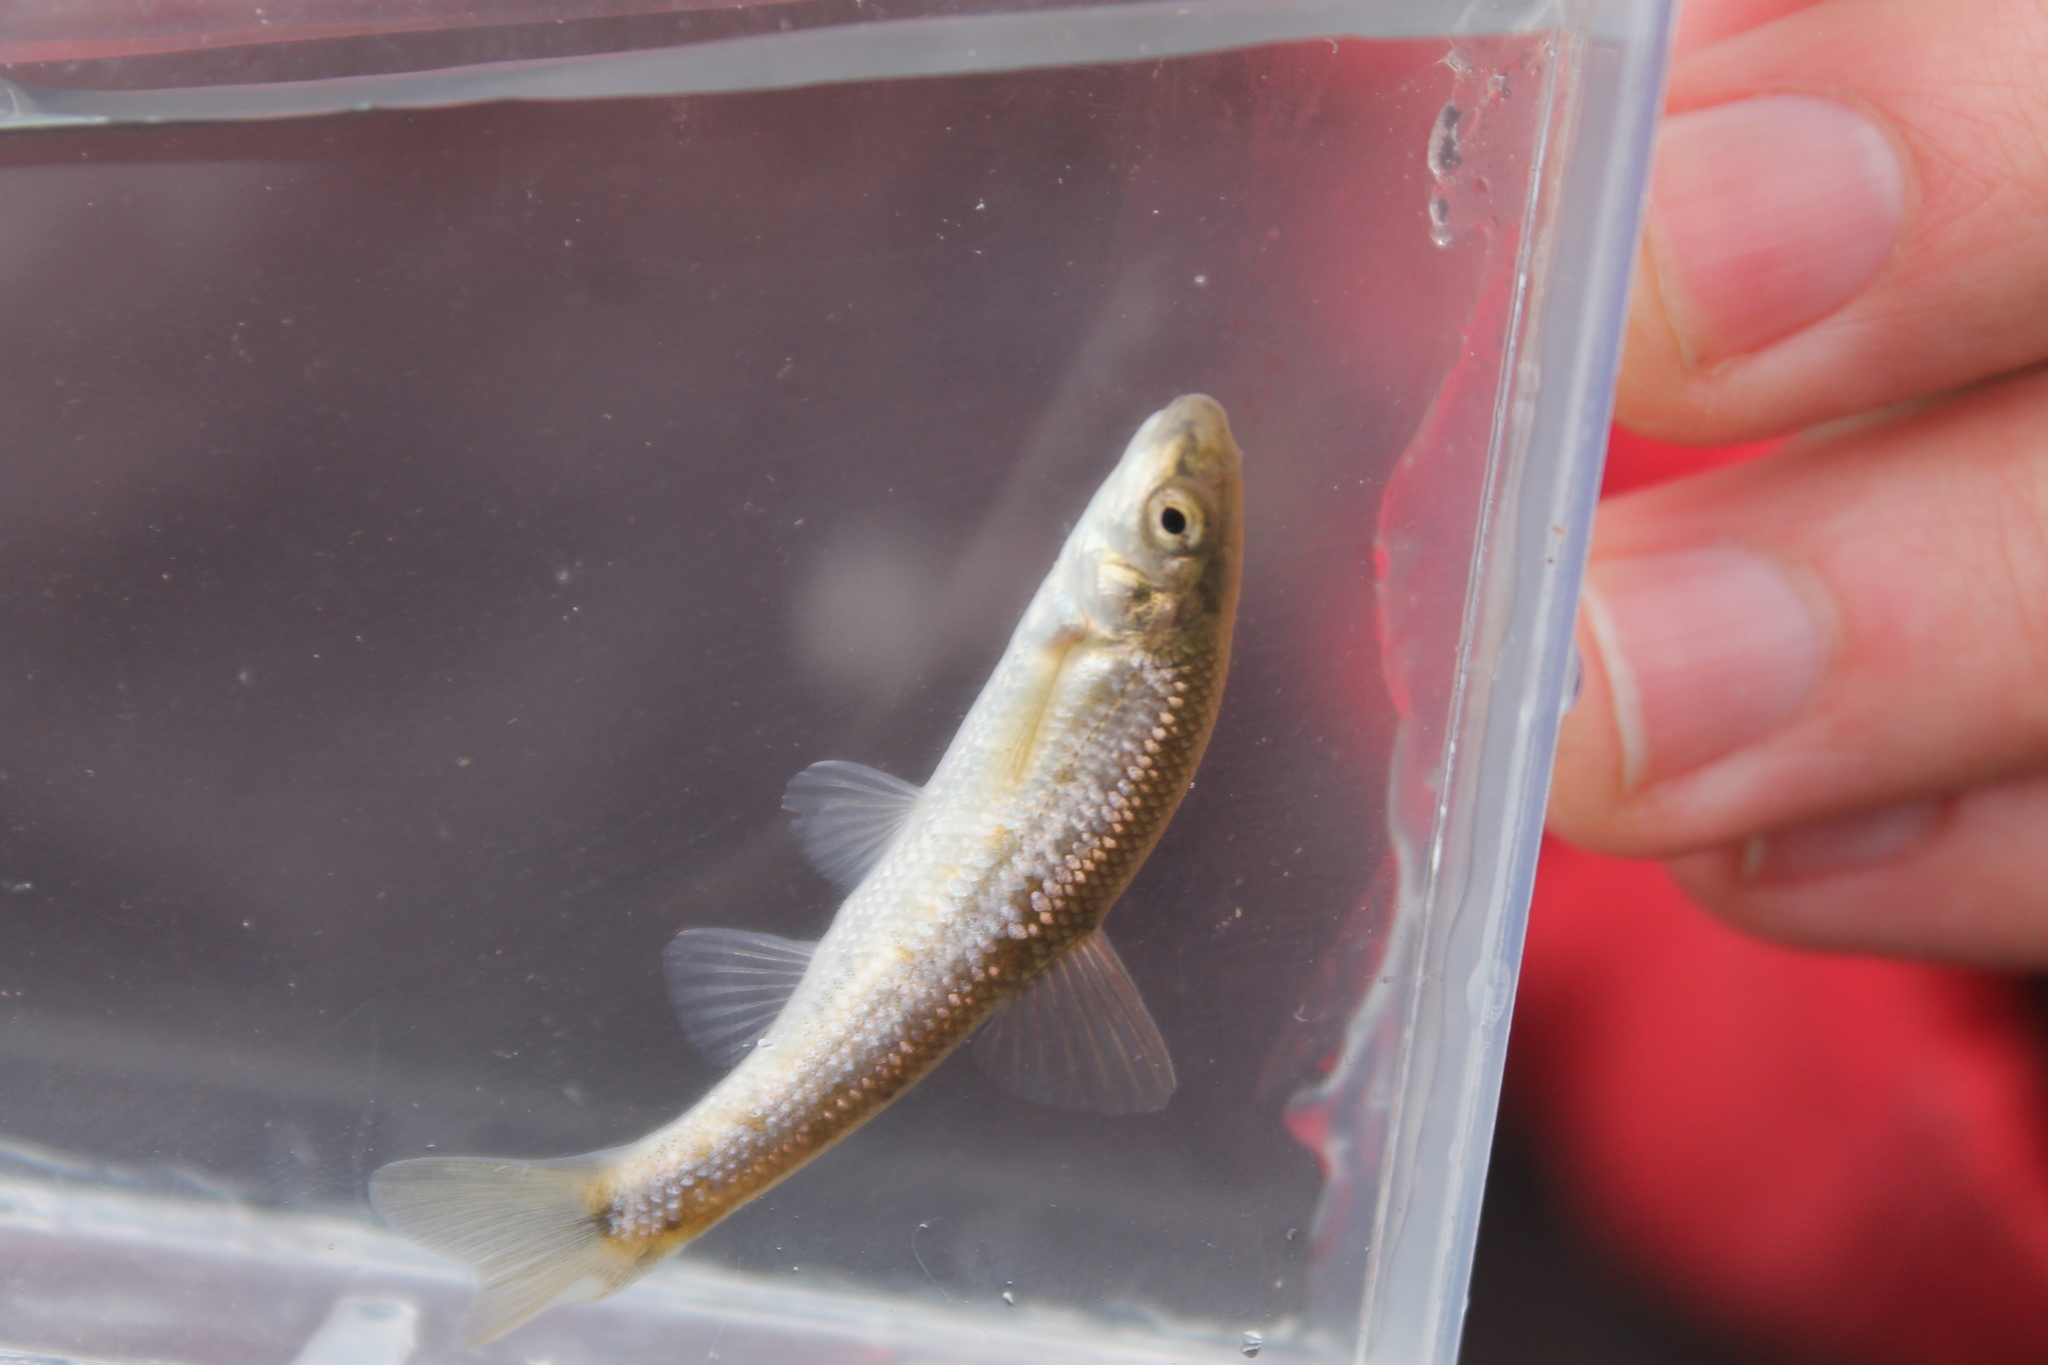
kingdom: Animalia
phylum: Chordata
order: Cypriniformes
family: Cyprinidae
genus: Campostoma
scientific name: Campostoma oligolepis
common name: Largescale stoneroller
